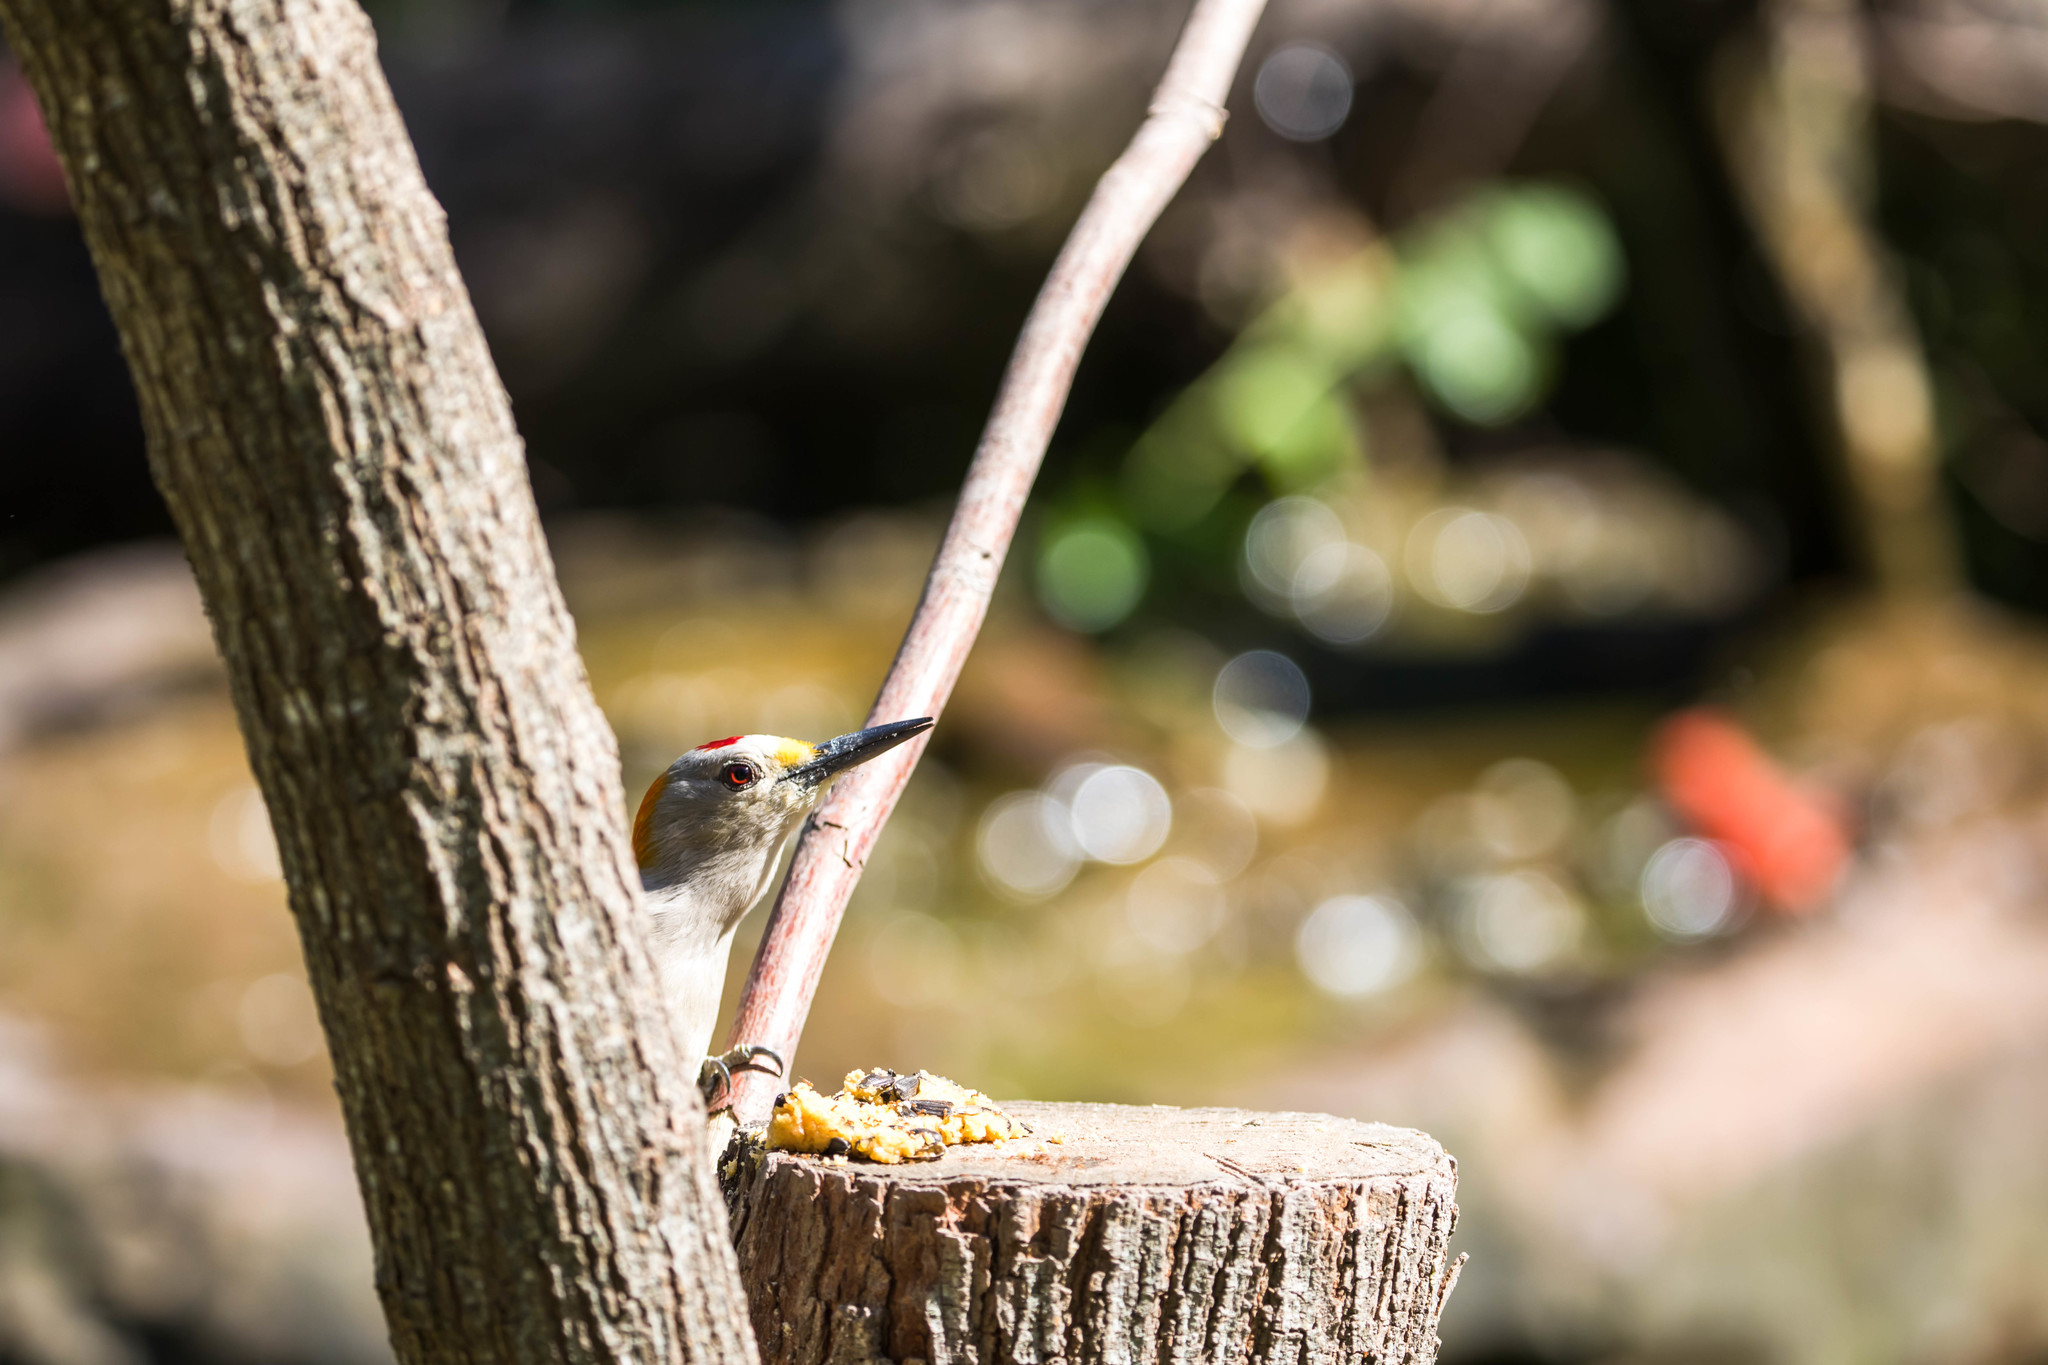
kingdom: Animalia
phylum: Chordata
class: Aves
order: Piciformes
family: Picidae
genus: Melanerpes
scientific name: Melanerpes aurifrons
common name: Golden-fronted woodpecker
